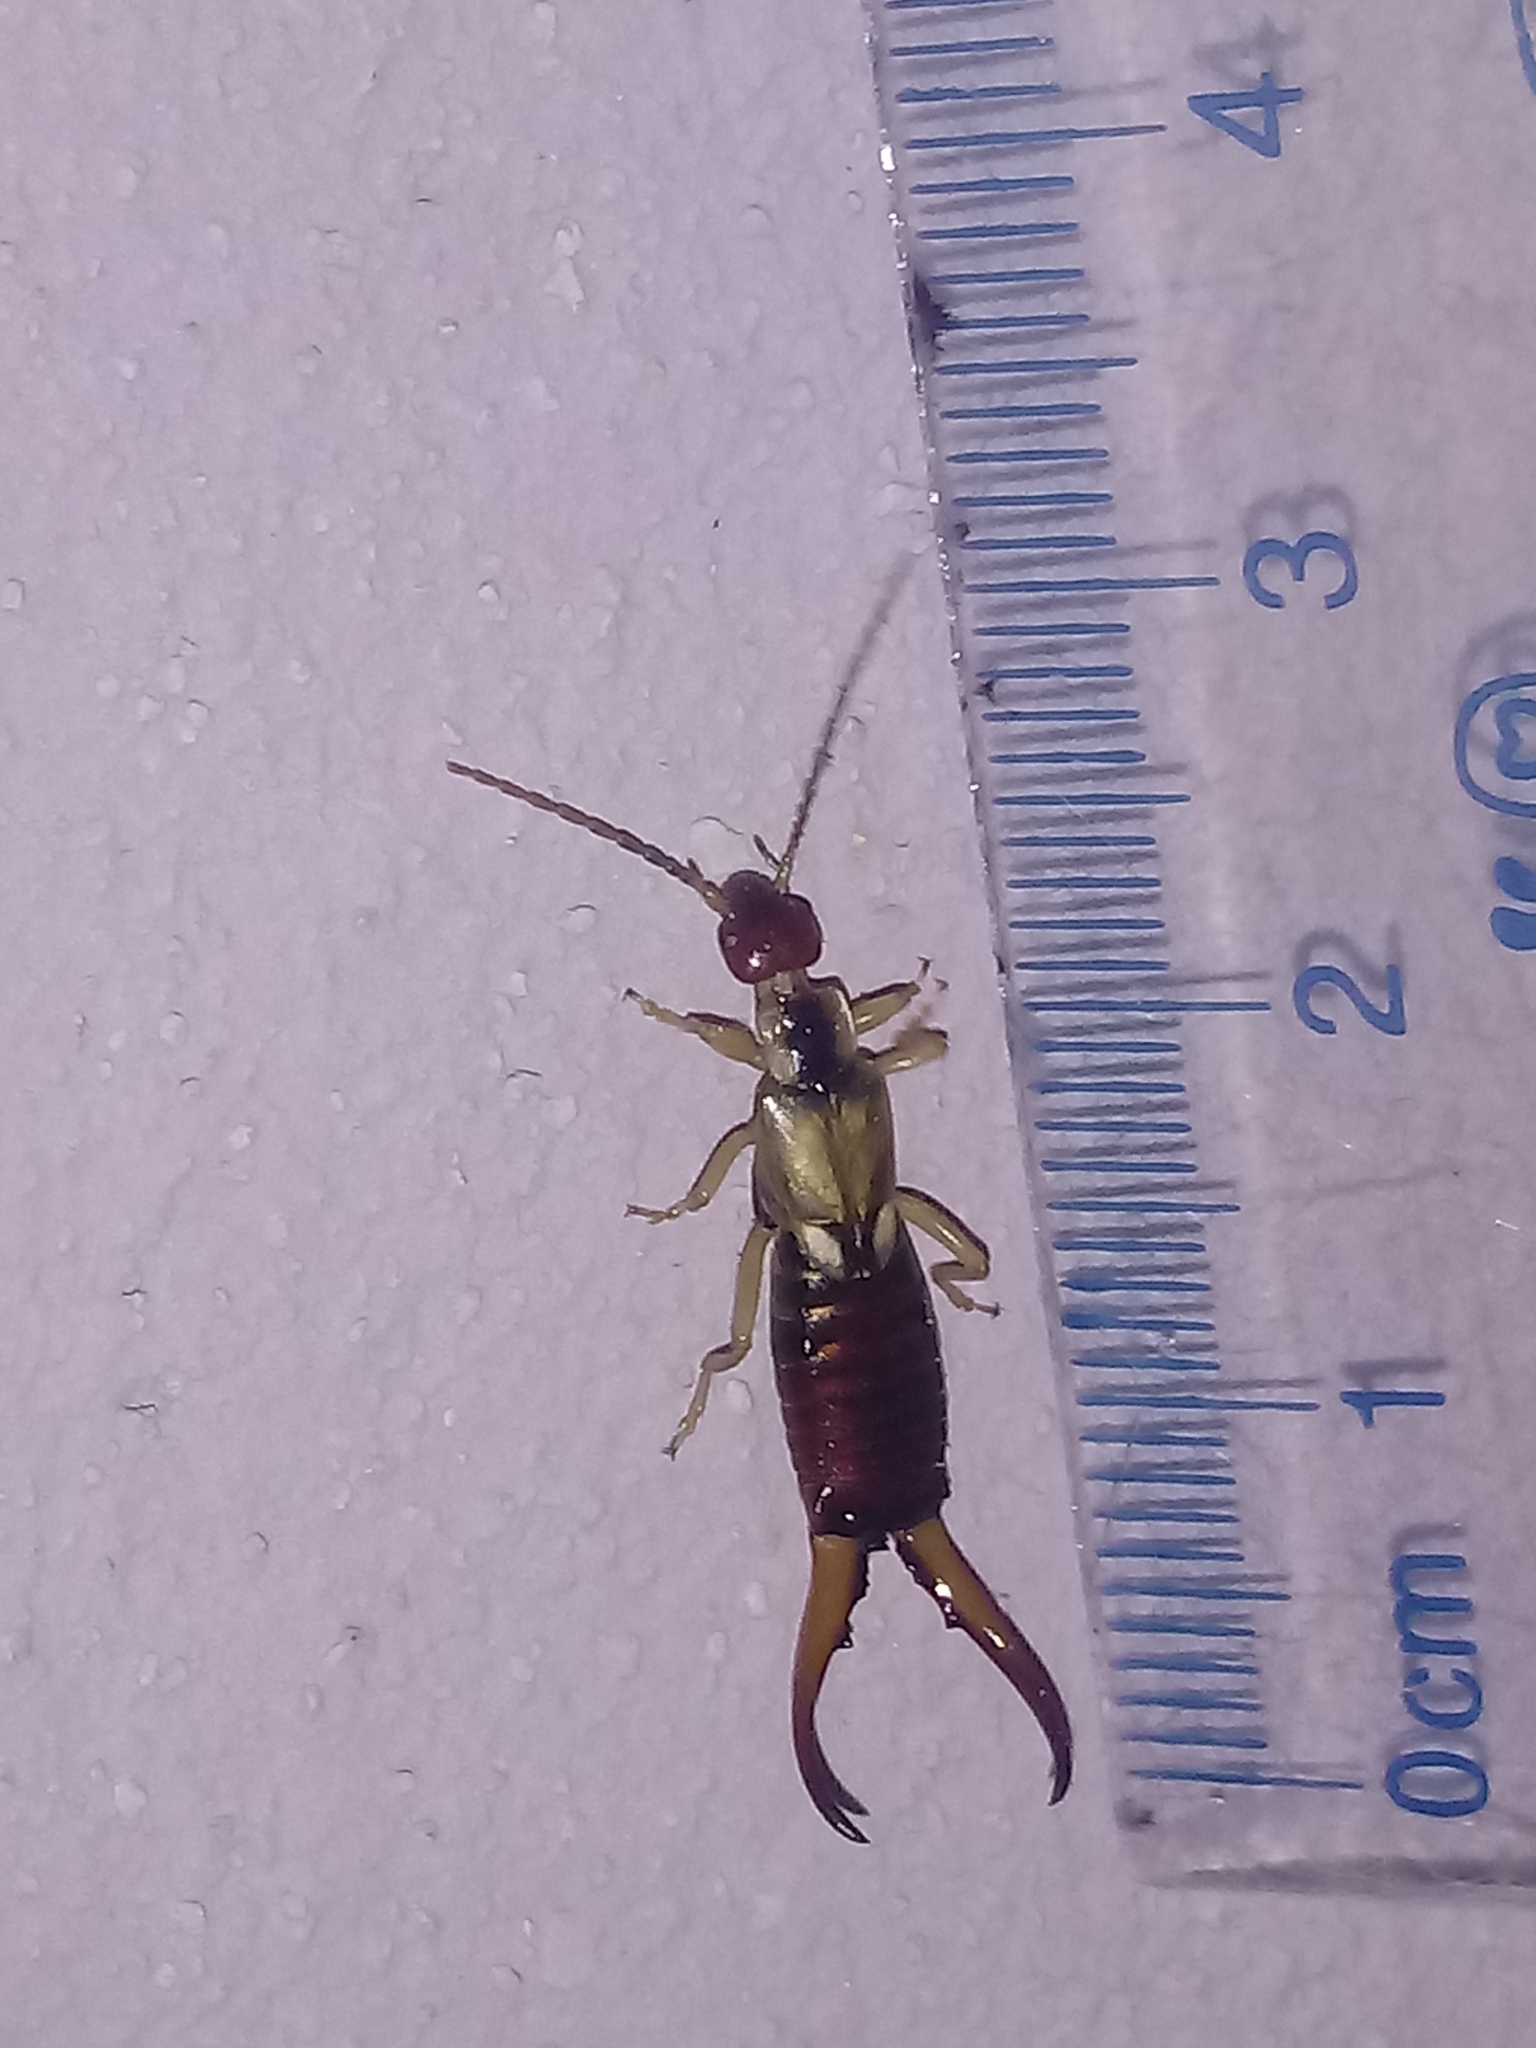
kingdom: Animalia
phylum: Arthropoda
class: Insecta
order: Dermaptera
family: Forficulidae
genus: Forficula
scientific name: Forficula
